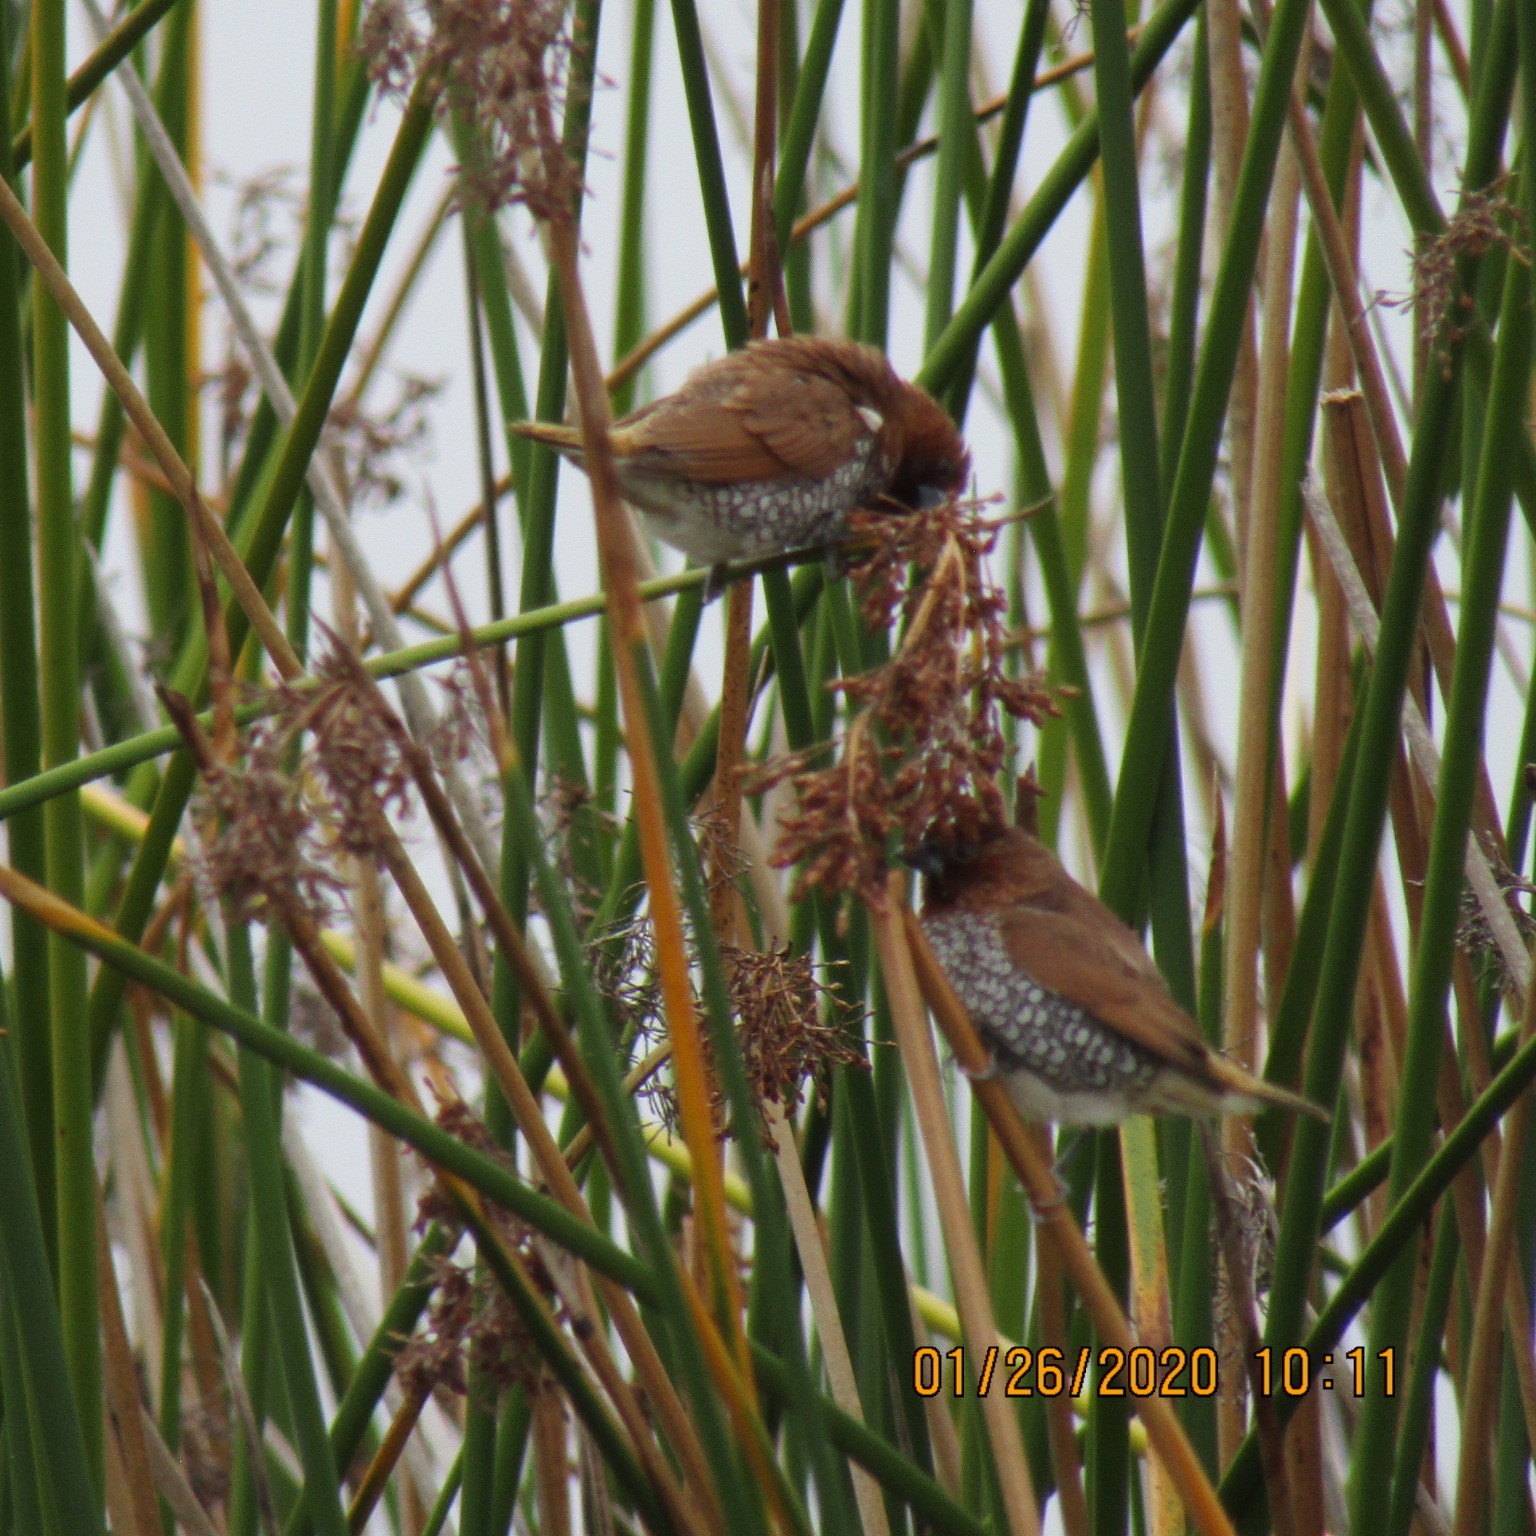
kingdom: Animalia
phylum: Chordata
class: Aves
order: Passeriformes
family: Estrildidae
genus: Lonchura
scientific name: Lonchura punctulata
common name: Scaly-breasted munia
